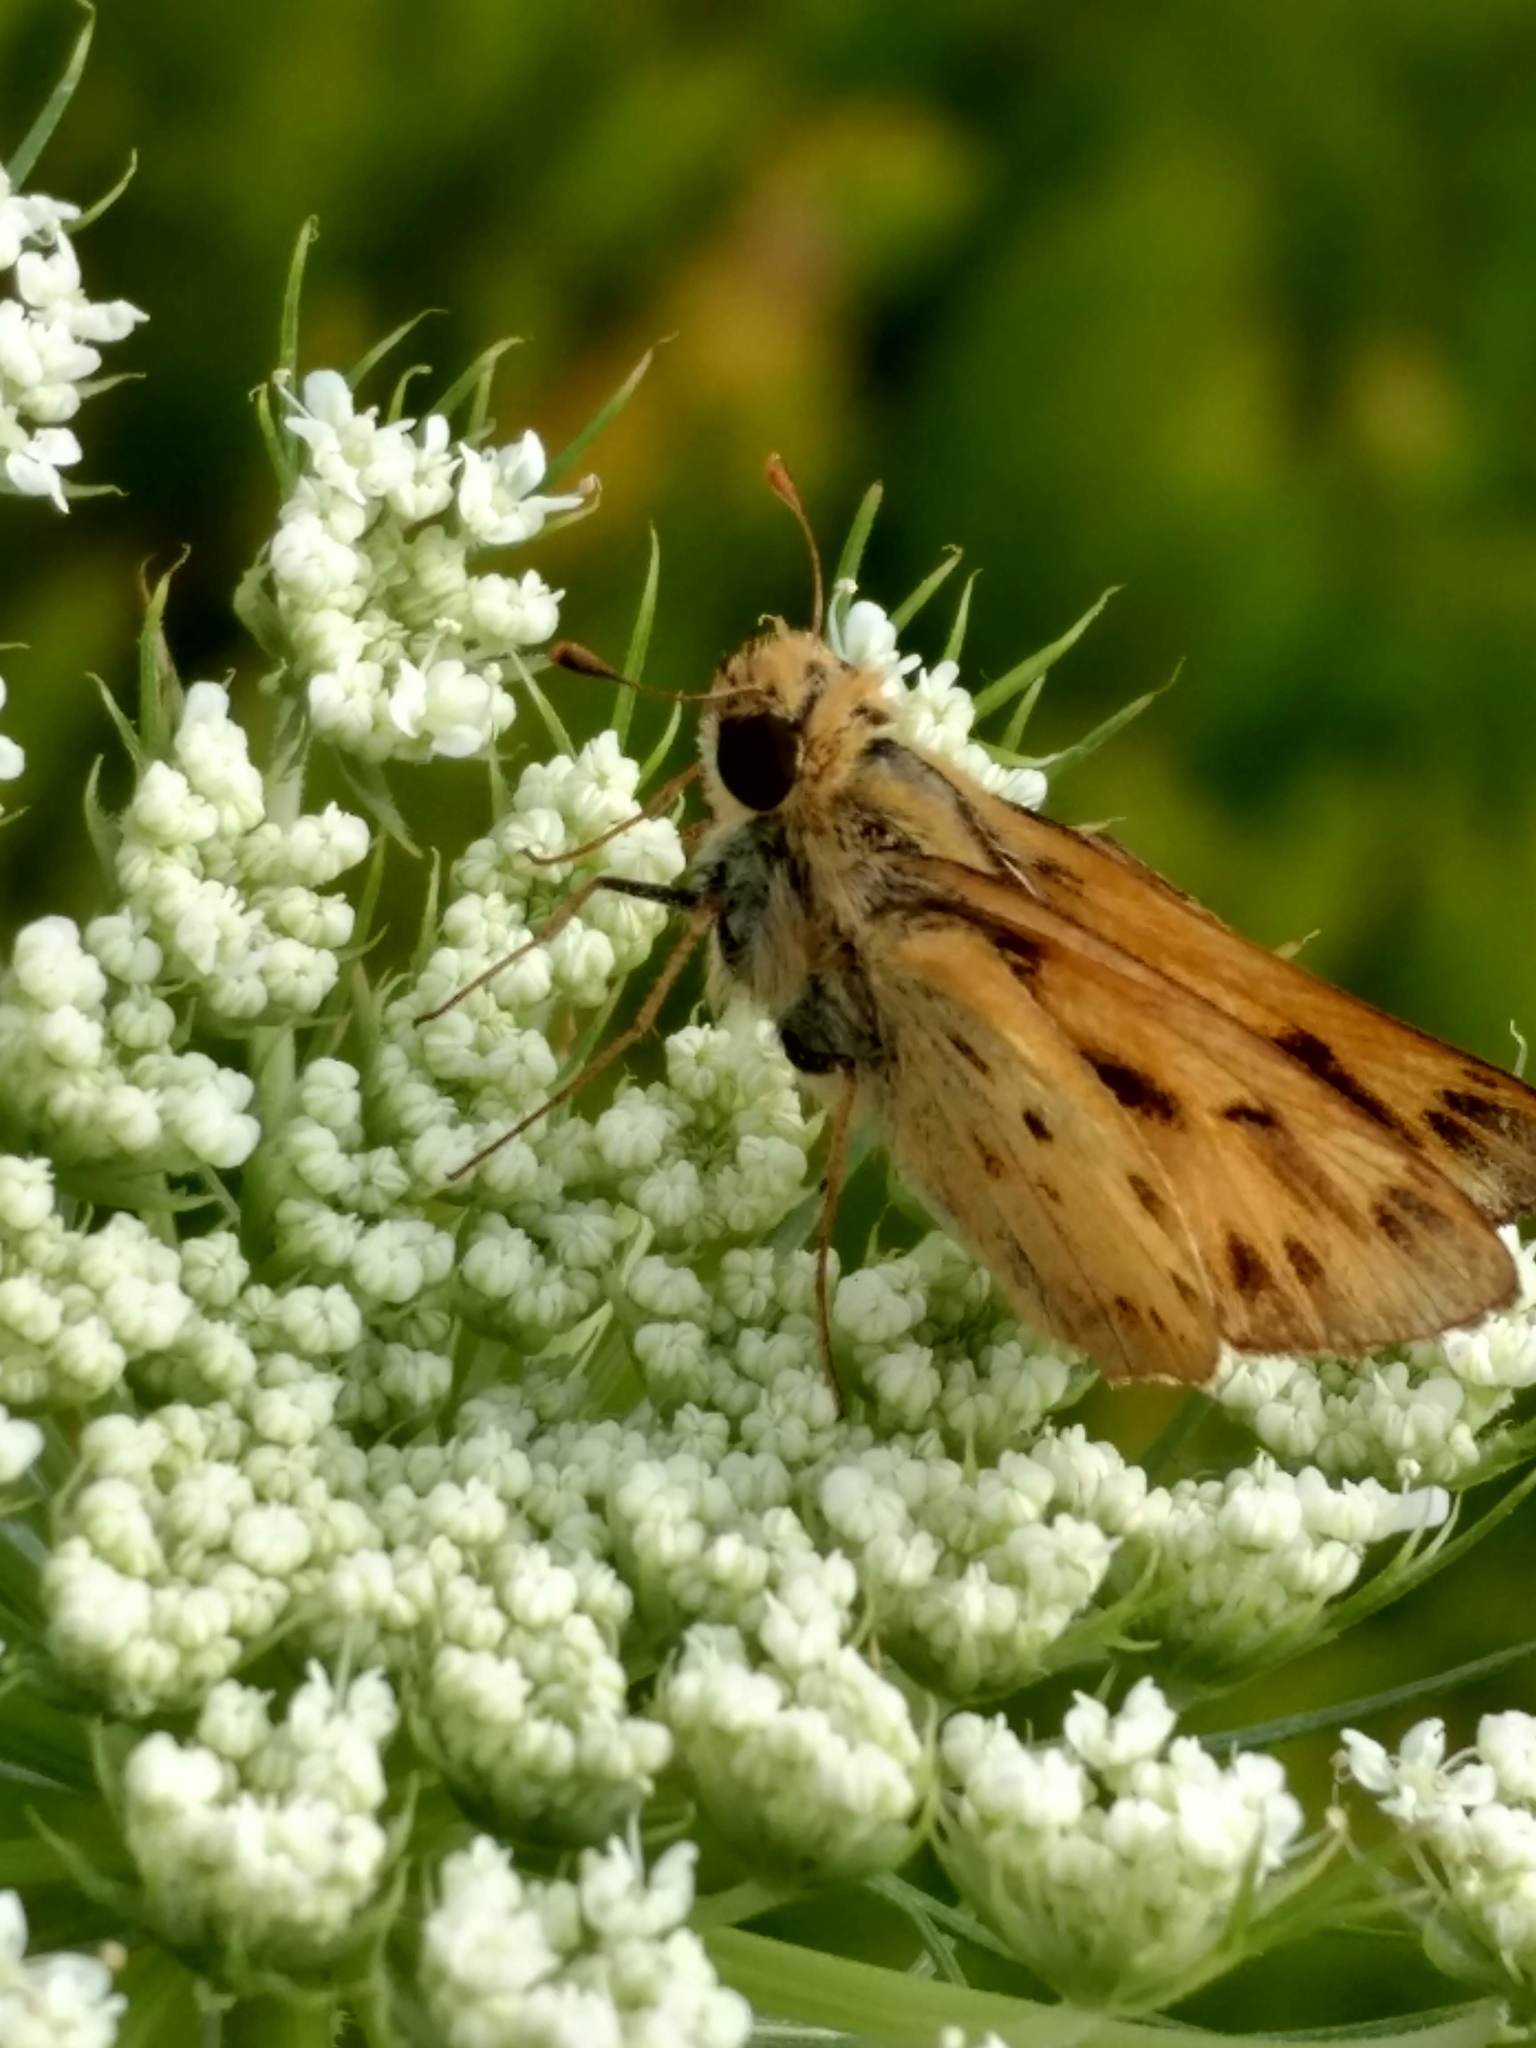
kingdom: Animalia
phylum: Arthropoda
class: Insecta
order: Lepidoptera
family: Hesperiidae
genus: Hylephila
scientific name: Hylephila phyleus
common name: Fiery skipper
